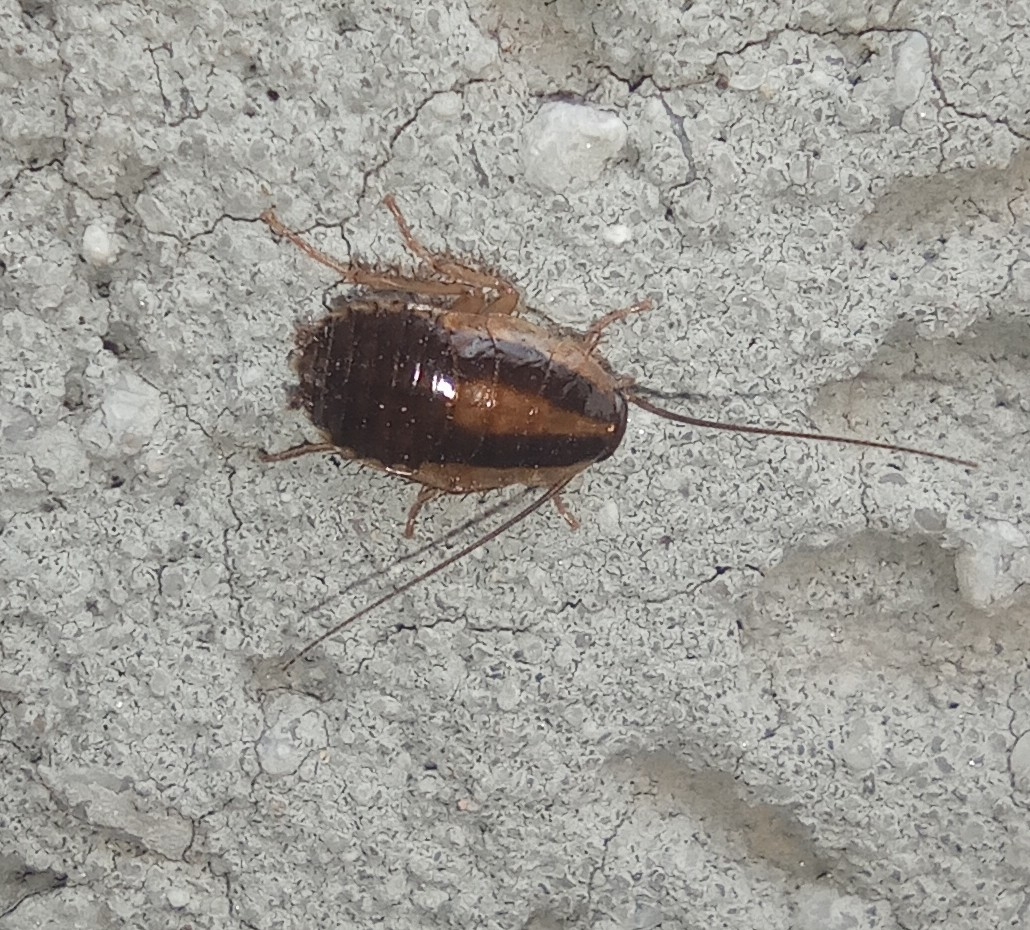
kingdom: Animalia
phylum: Arthropoda
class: Insecta
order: Blattodea
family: Ectobiidae
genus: Blattella
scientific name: Blattella germanica
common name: German cockroach
